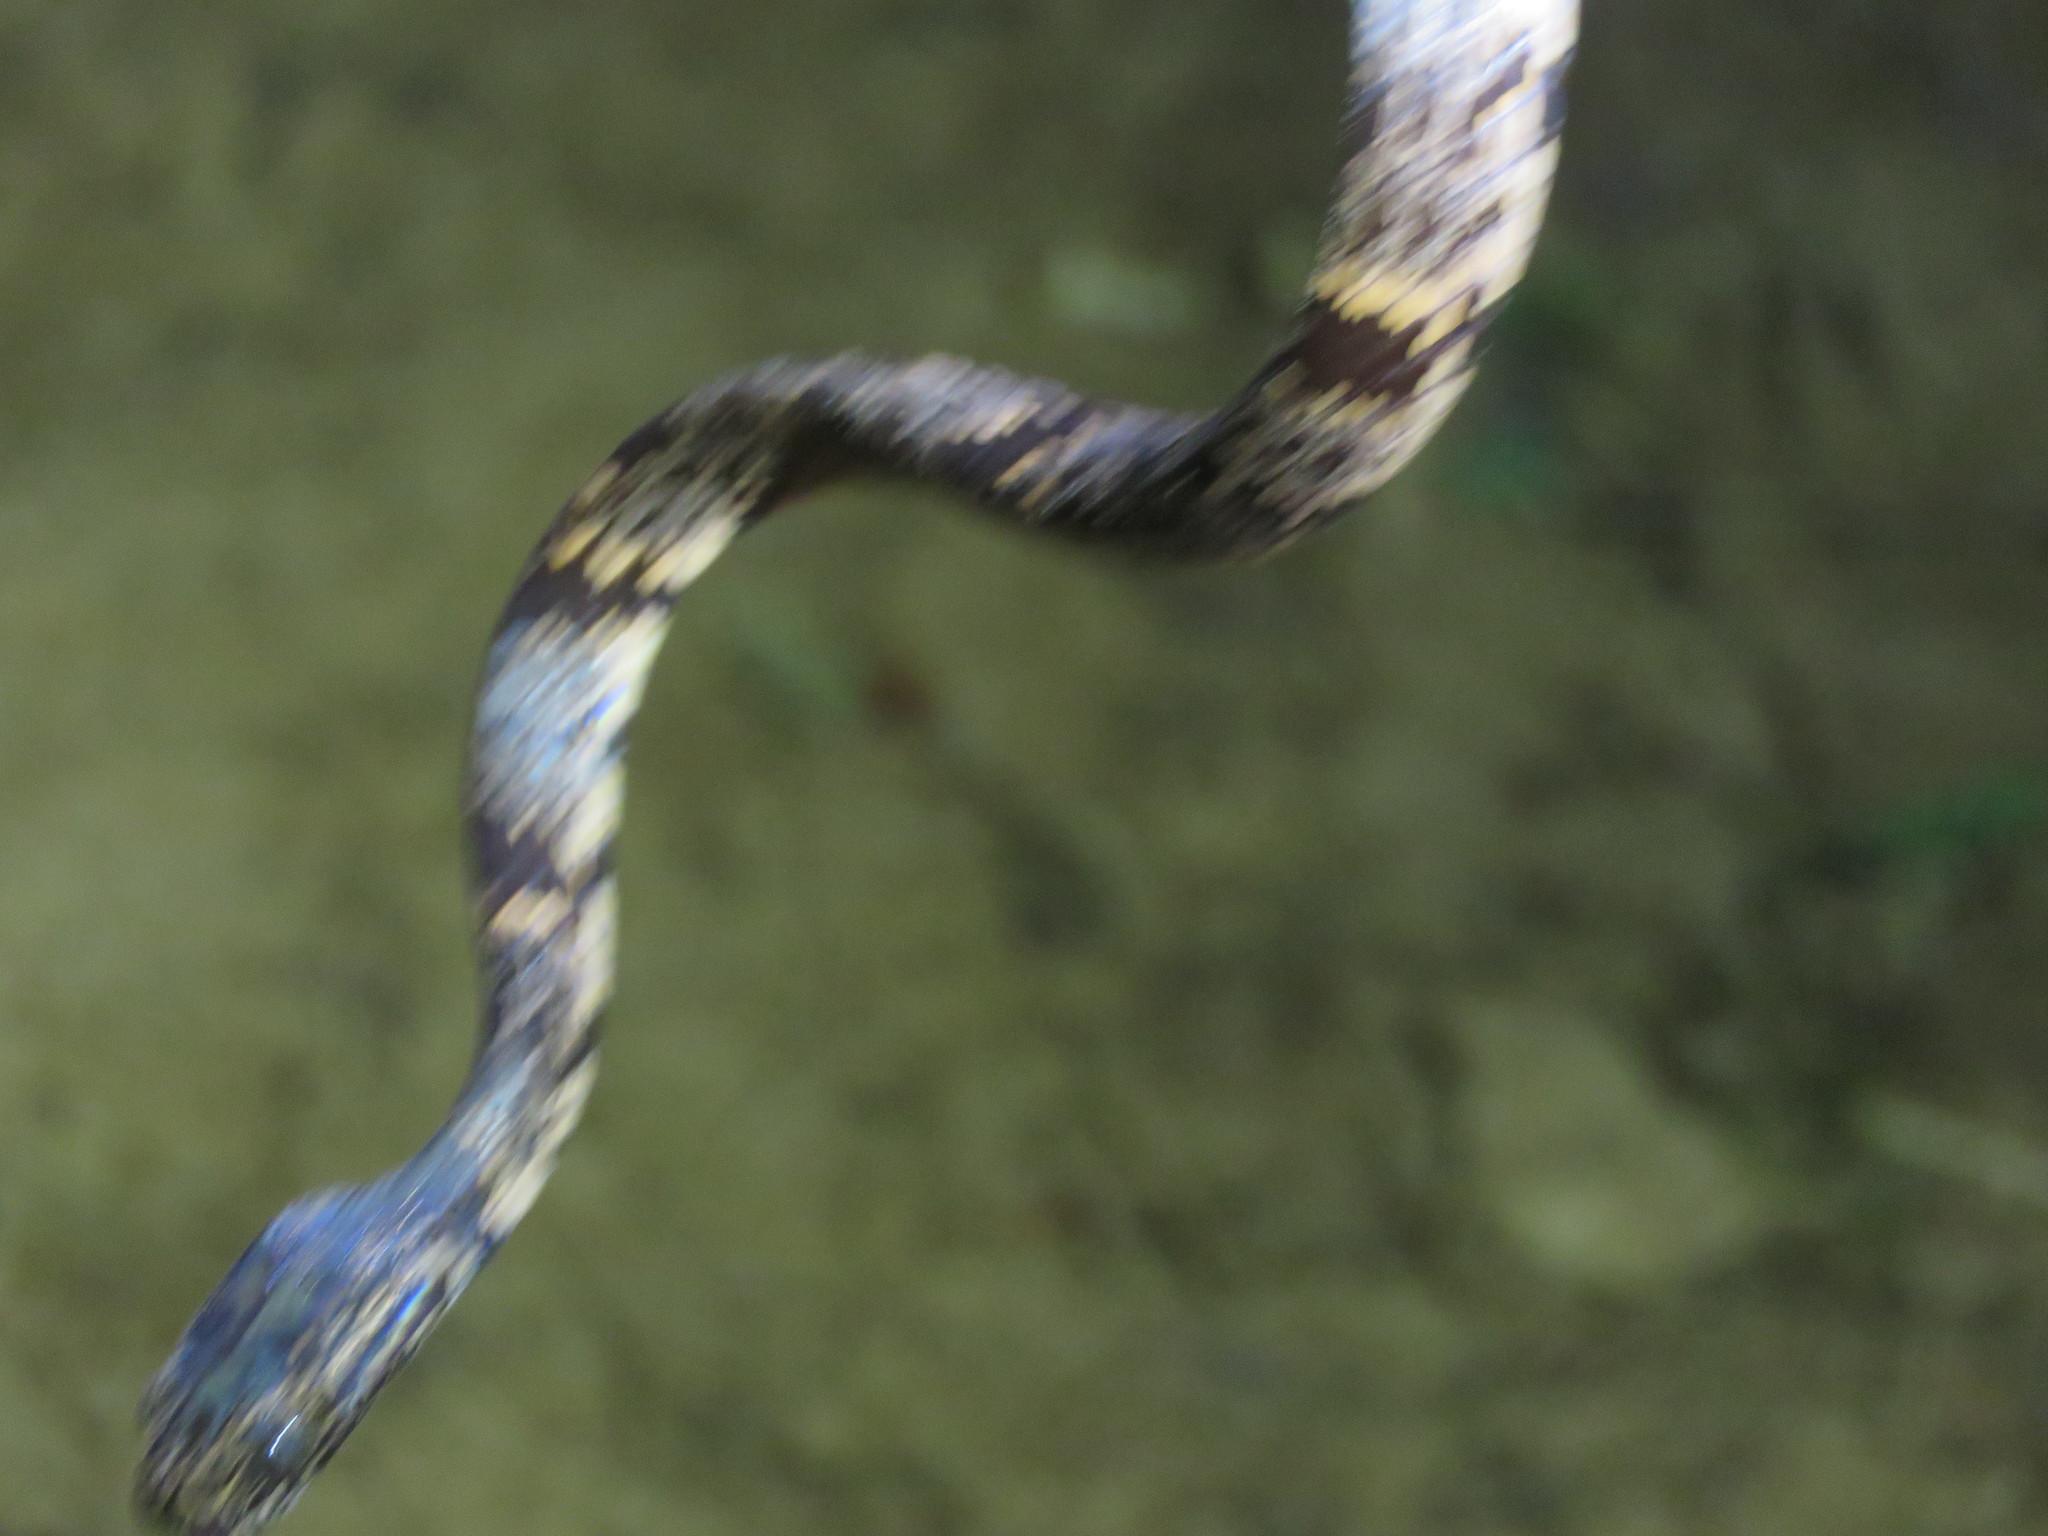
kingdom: Animalia
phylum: Chordata
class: Squamata
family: Colubridae
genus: Sibon
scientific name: Sibon nebulatus
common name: Cloudy snail-eating snake
